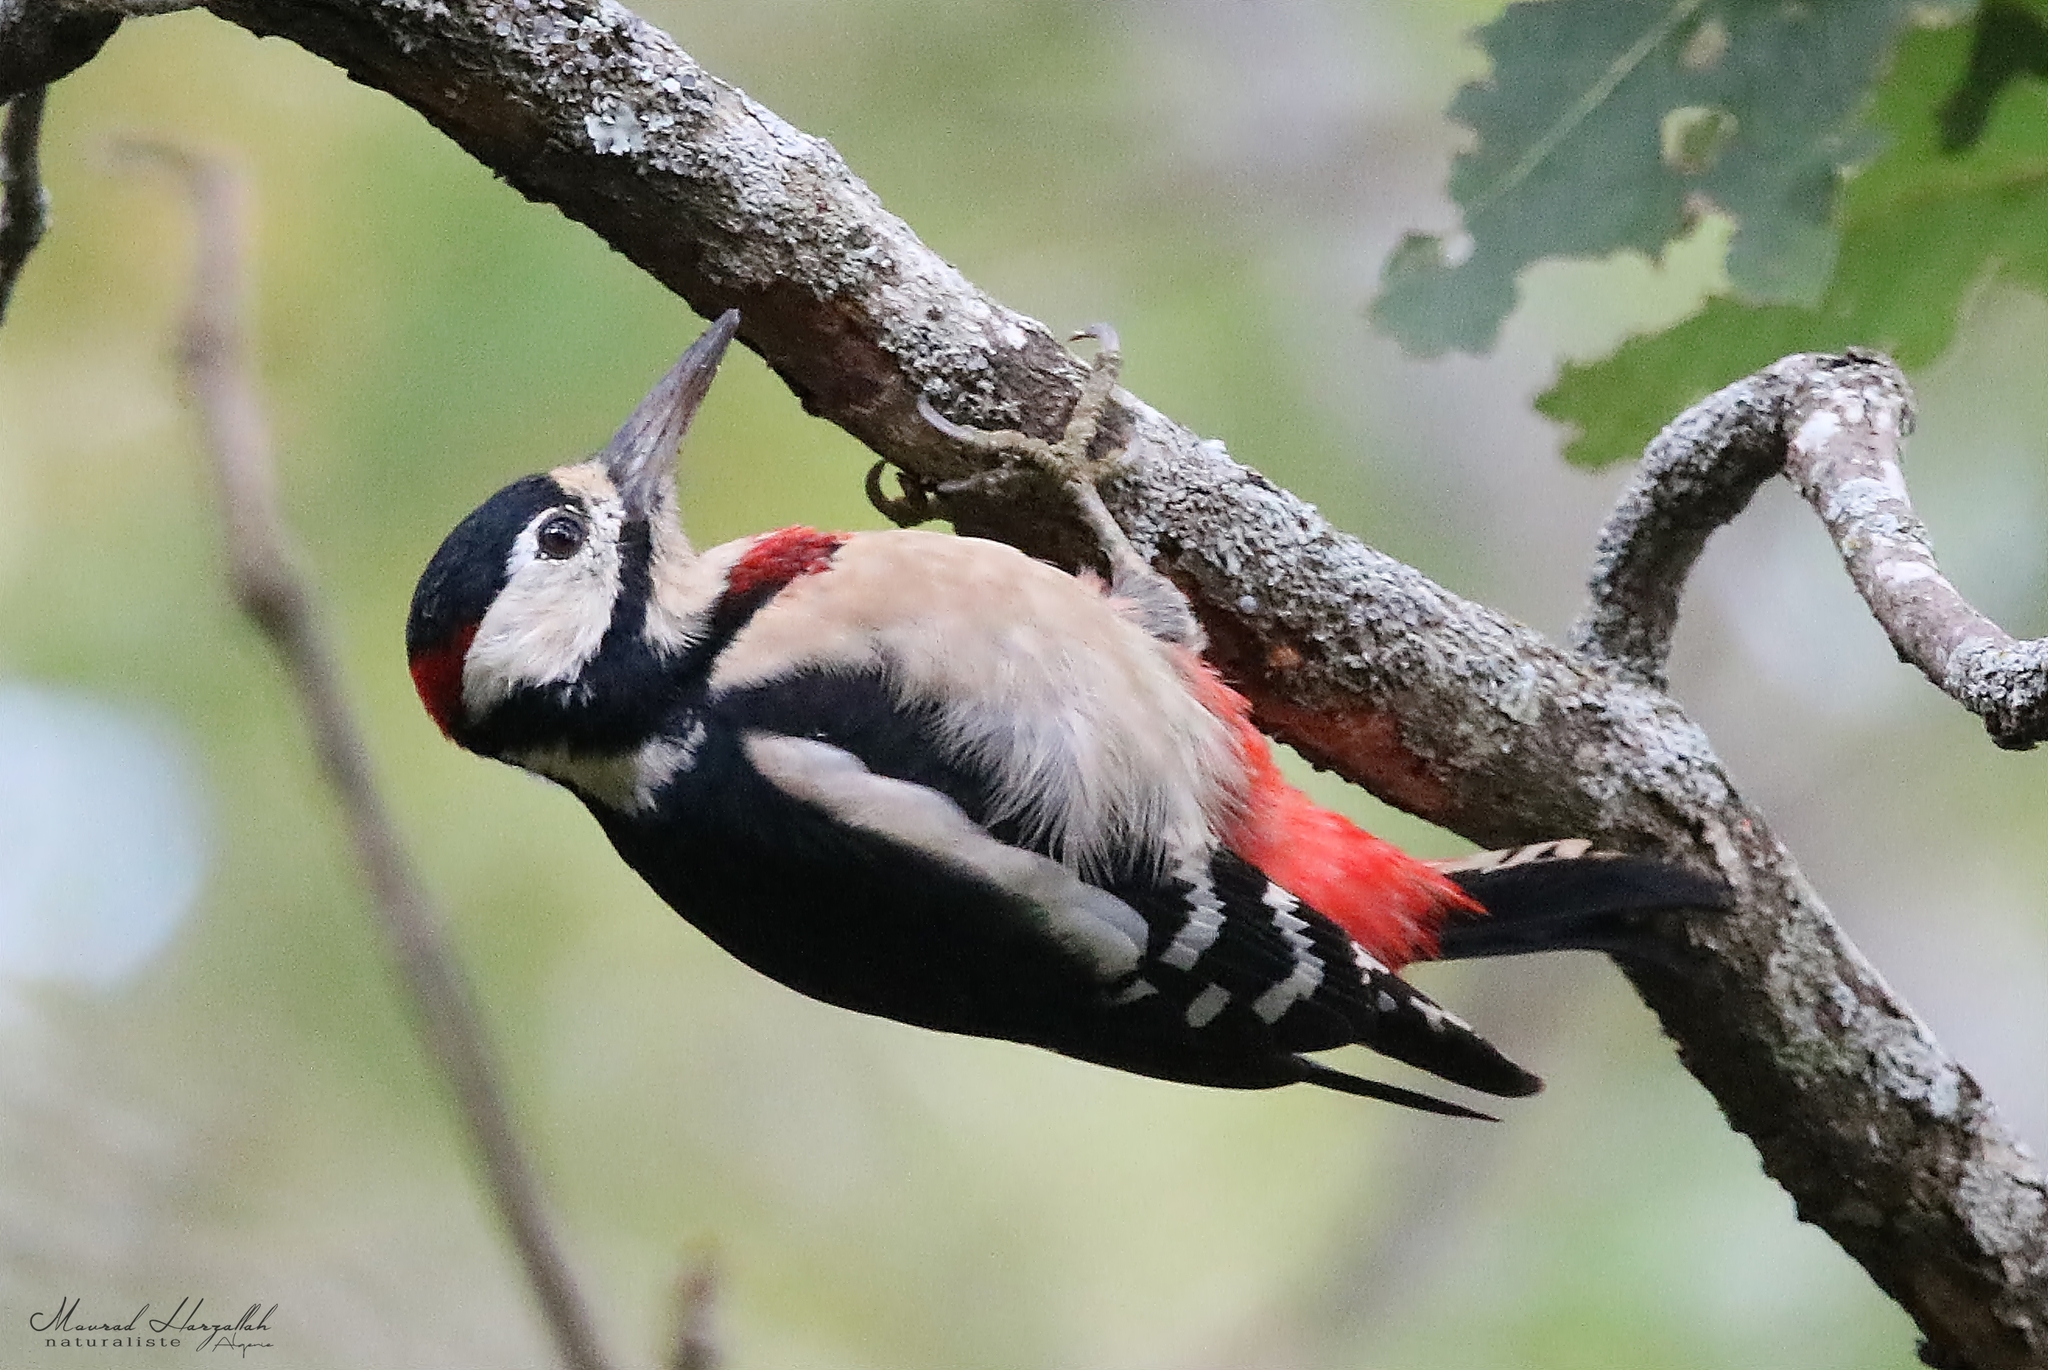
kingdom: Animalia
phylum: Chordata
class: Aves
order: Piciformes
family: Picidae
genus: Dendrocopos
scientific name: Dendrocopos major
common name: Great spotted woodpecker
